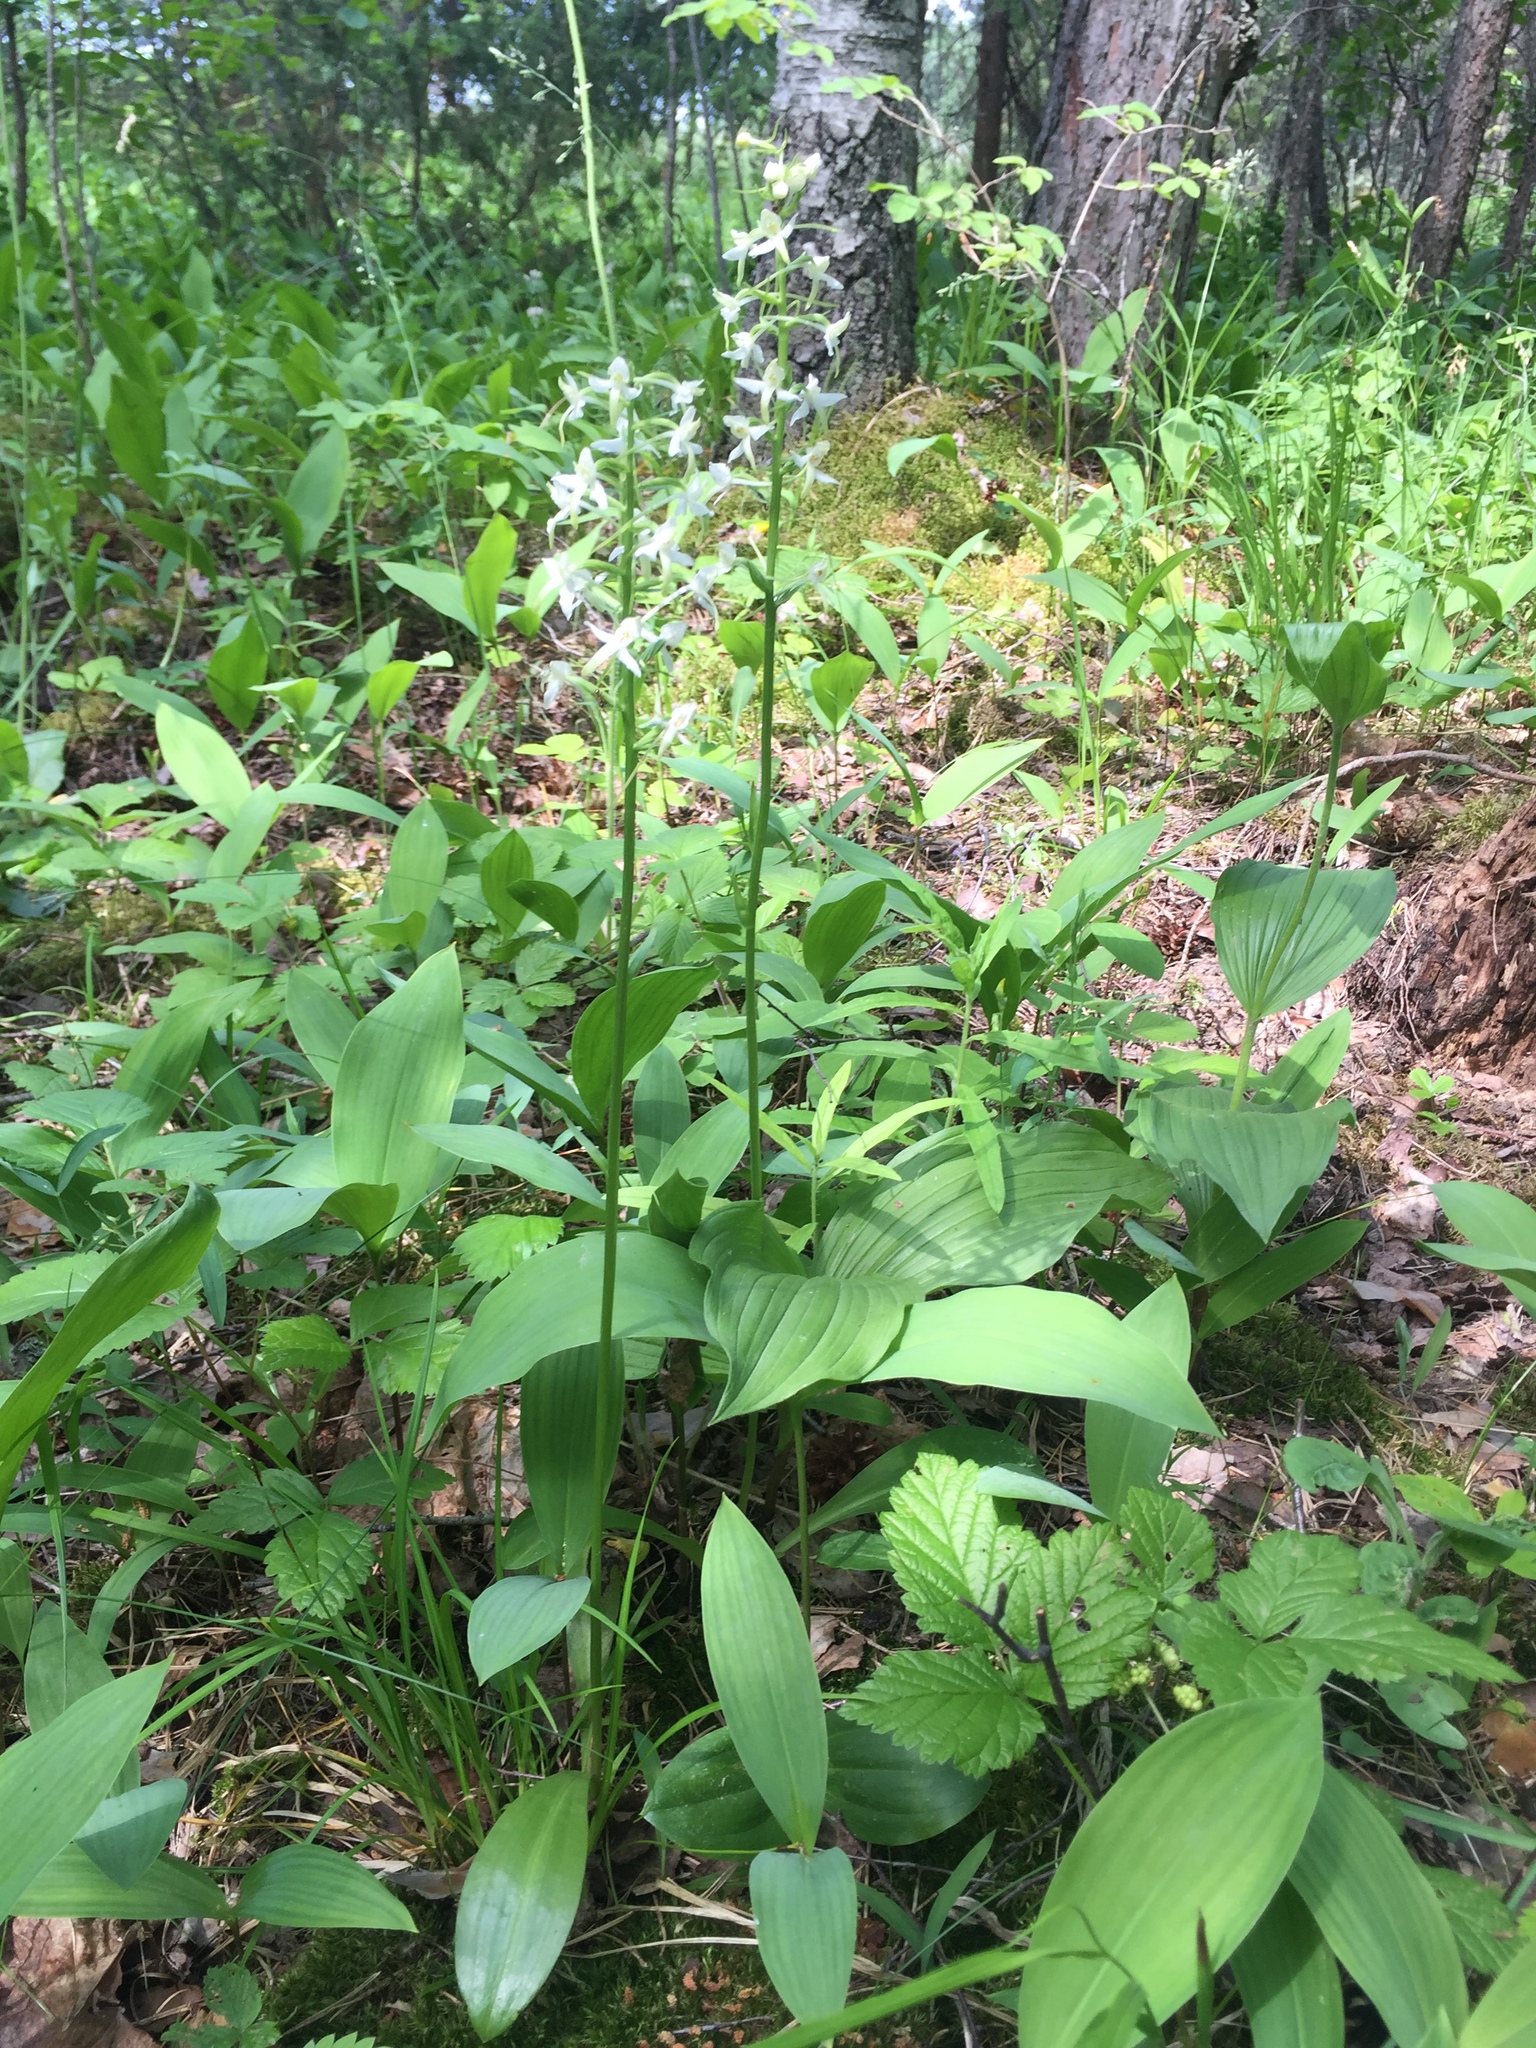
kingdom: Plantae
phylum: Tracheophyta
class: Liliopsida
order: Asparagales
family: Orchidaceae
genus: Platanthera
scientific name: Platanthera bifolia
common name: Lesser butterfly-orchid
